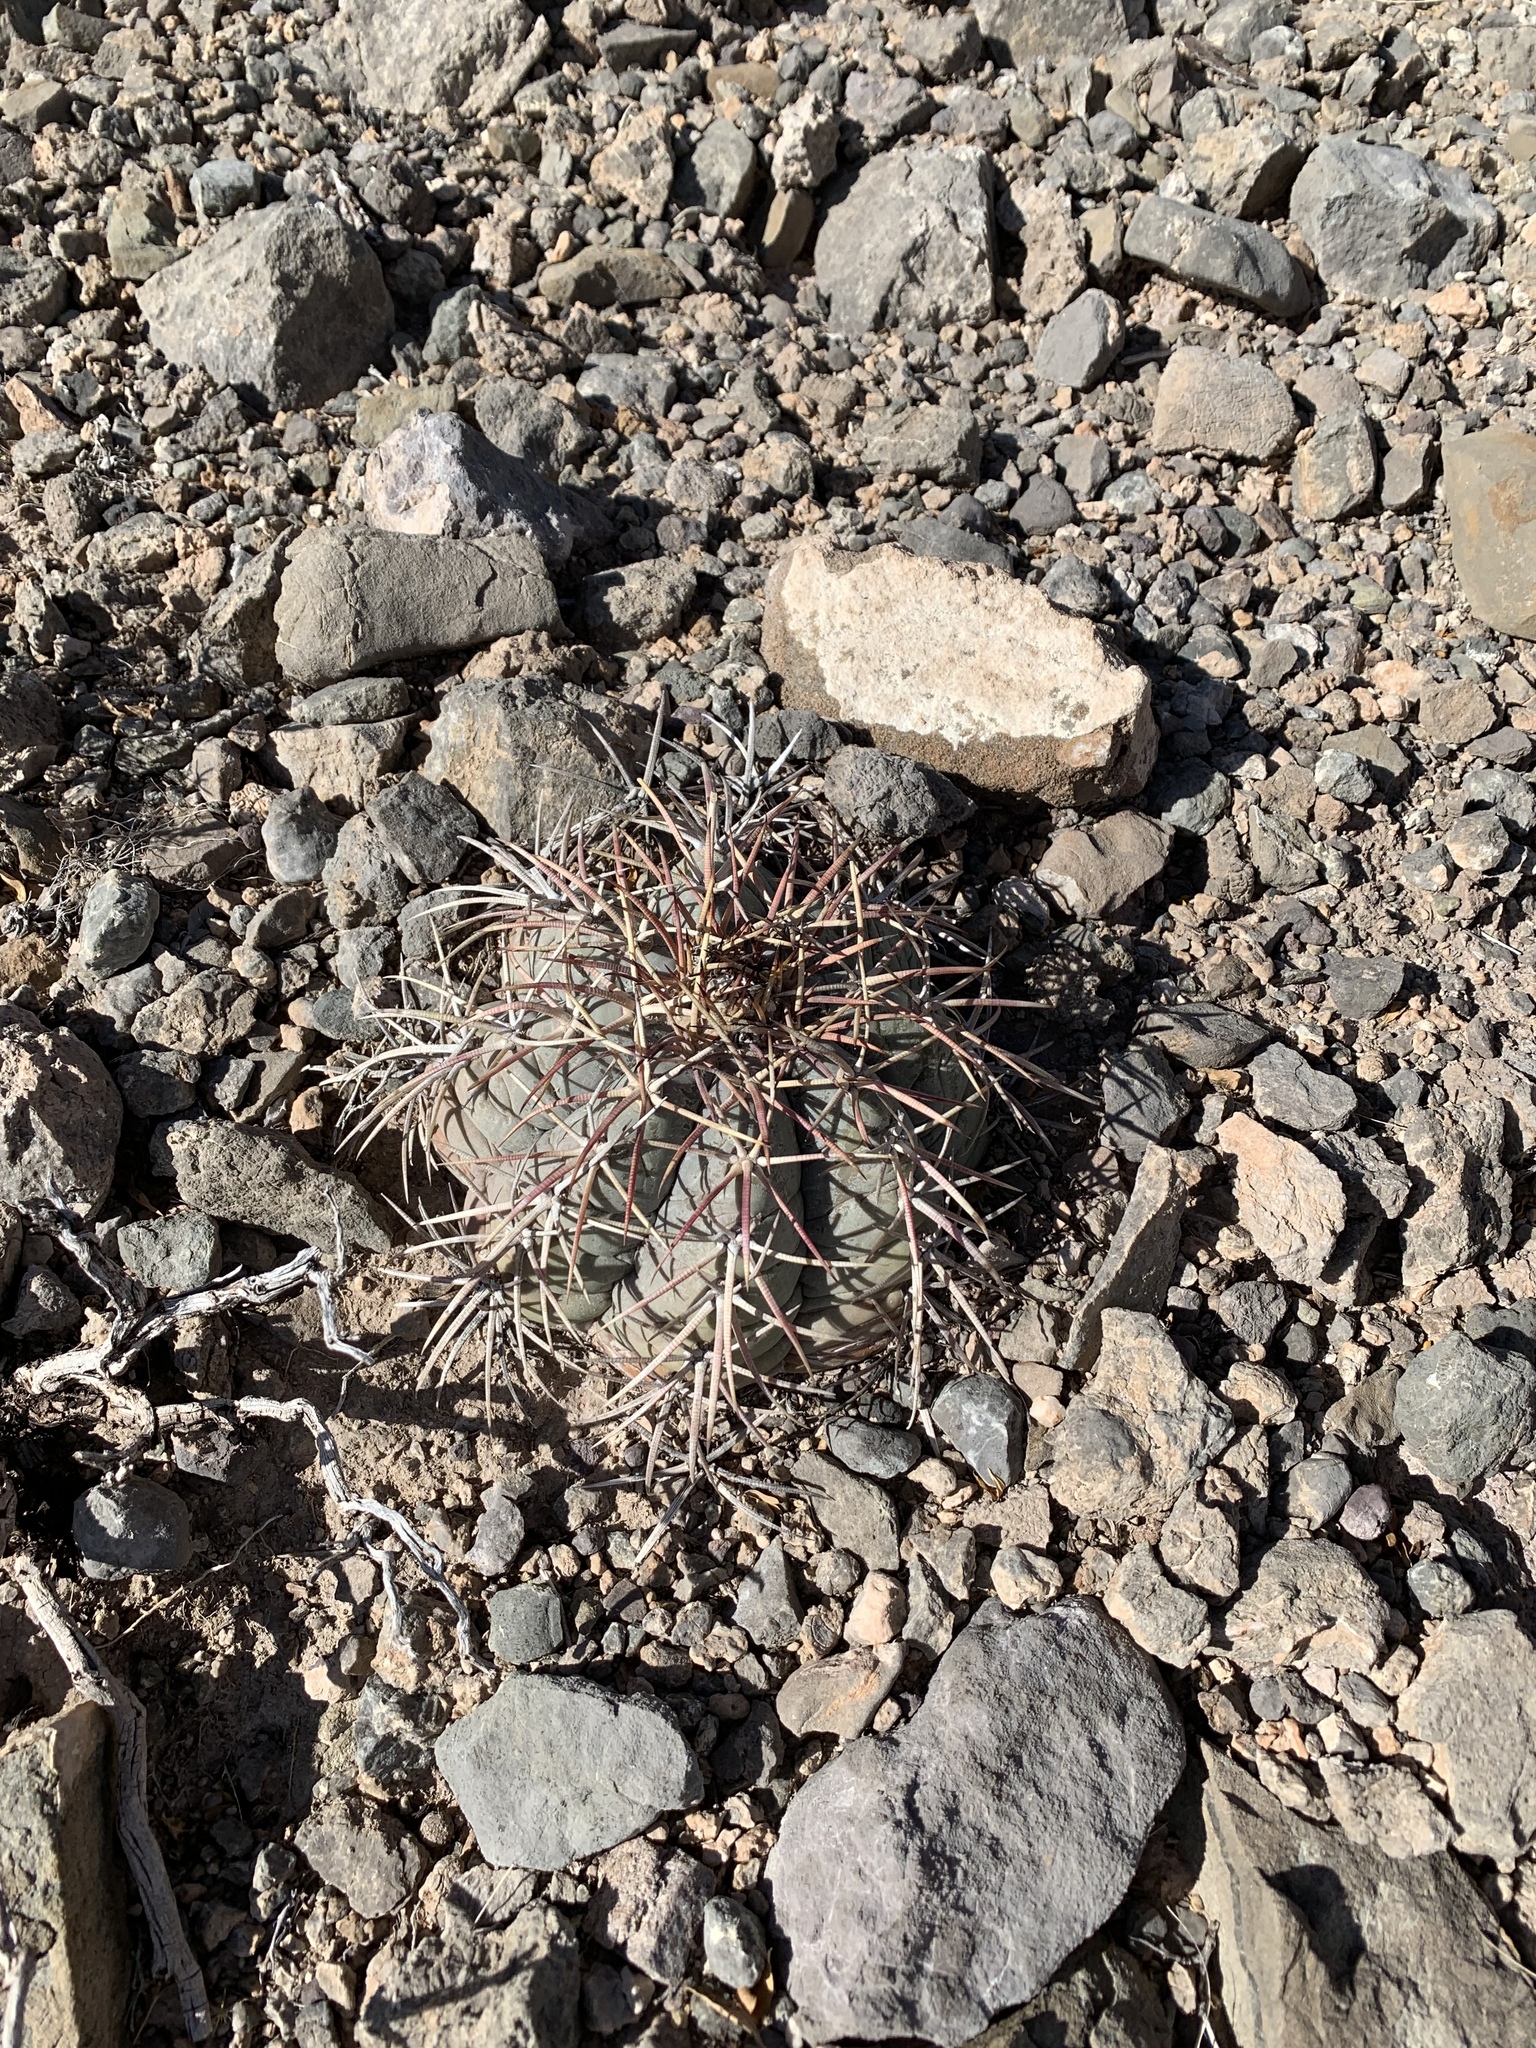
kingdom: Plantae
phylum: Tracheophyta
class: Magnoliopsida
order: Caryophyllales
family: Cactaceae
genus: Echinocactus
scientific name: Echinocactus horizonthalonius
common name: Devilshead
